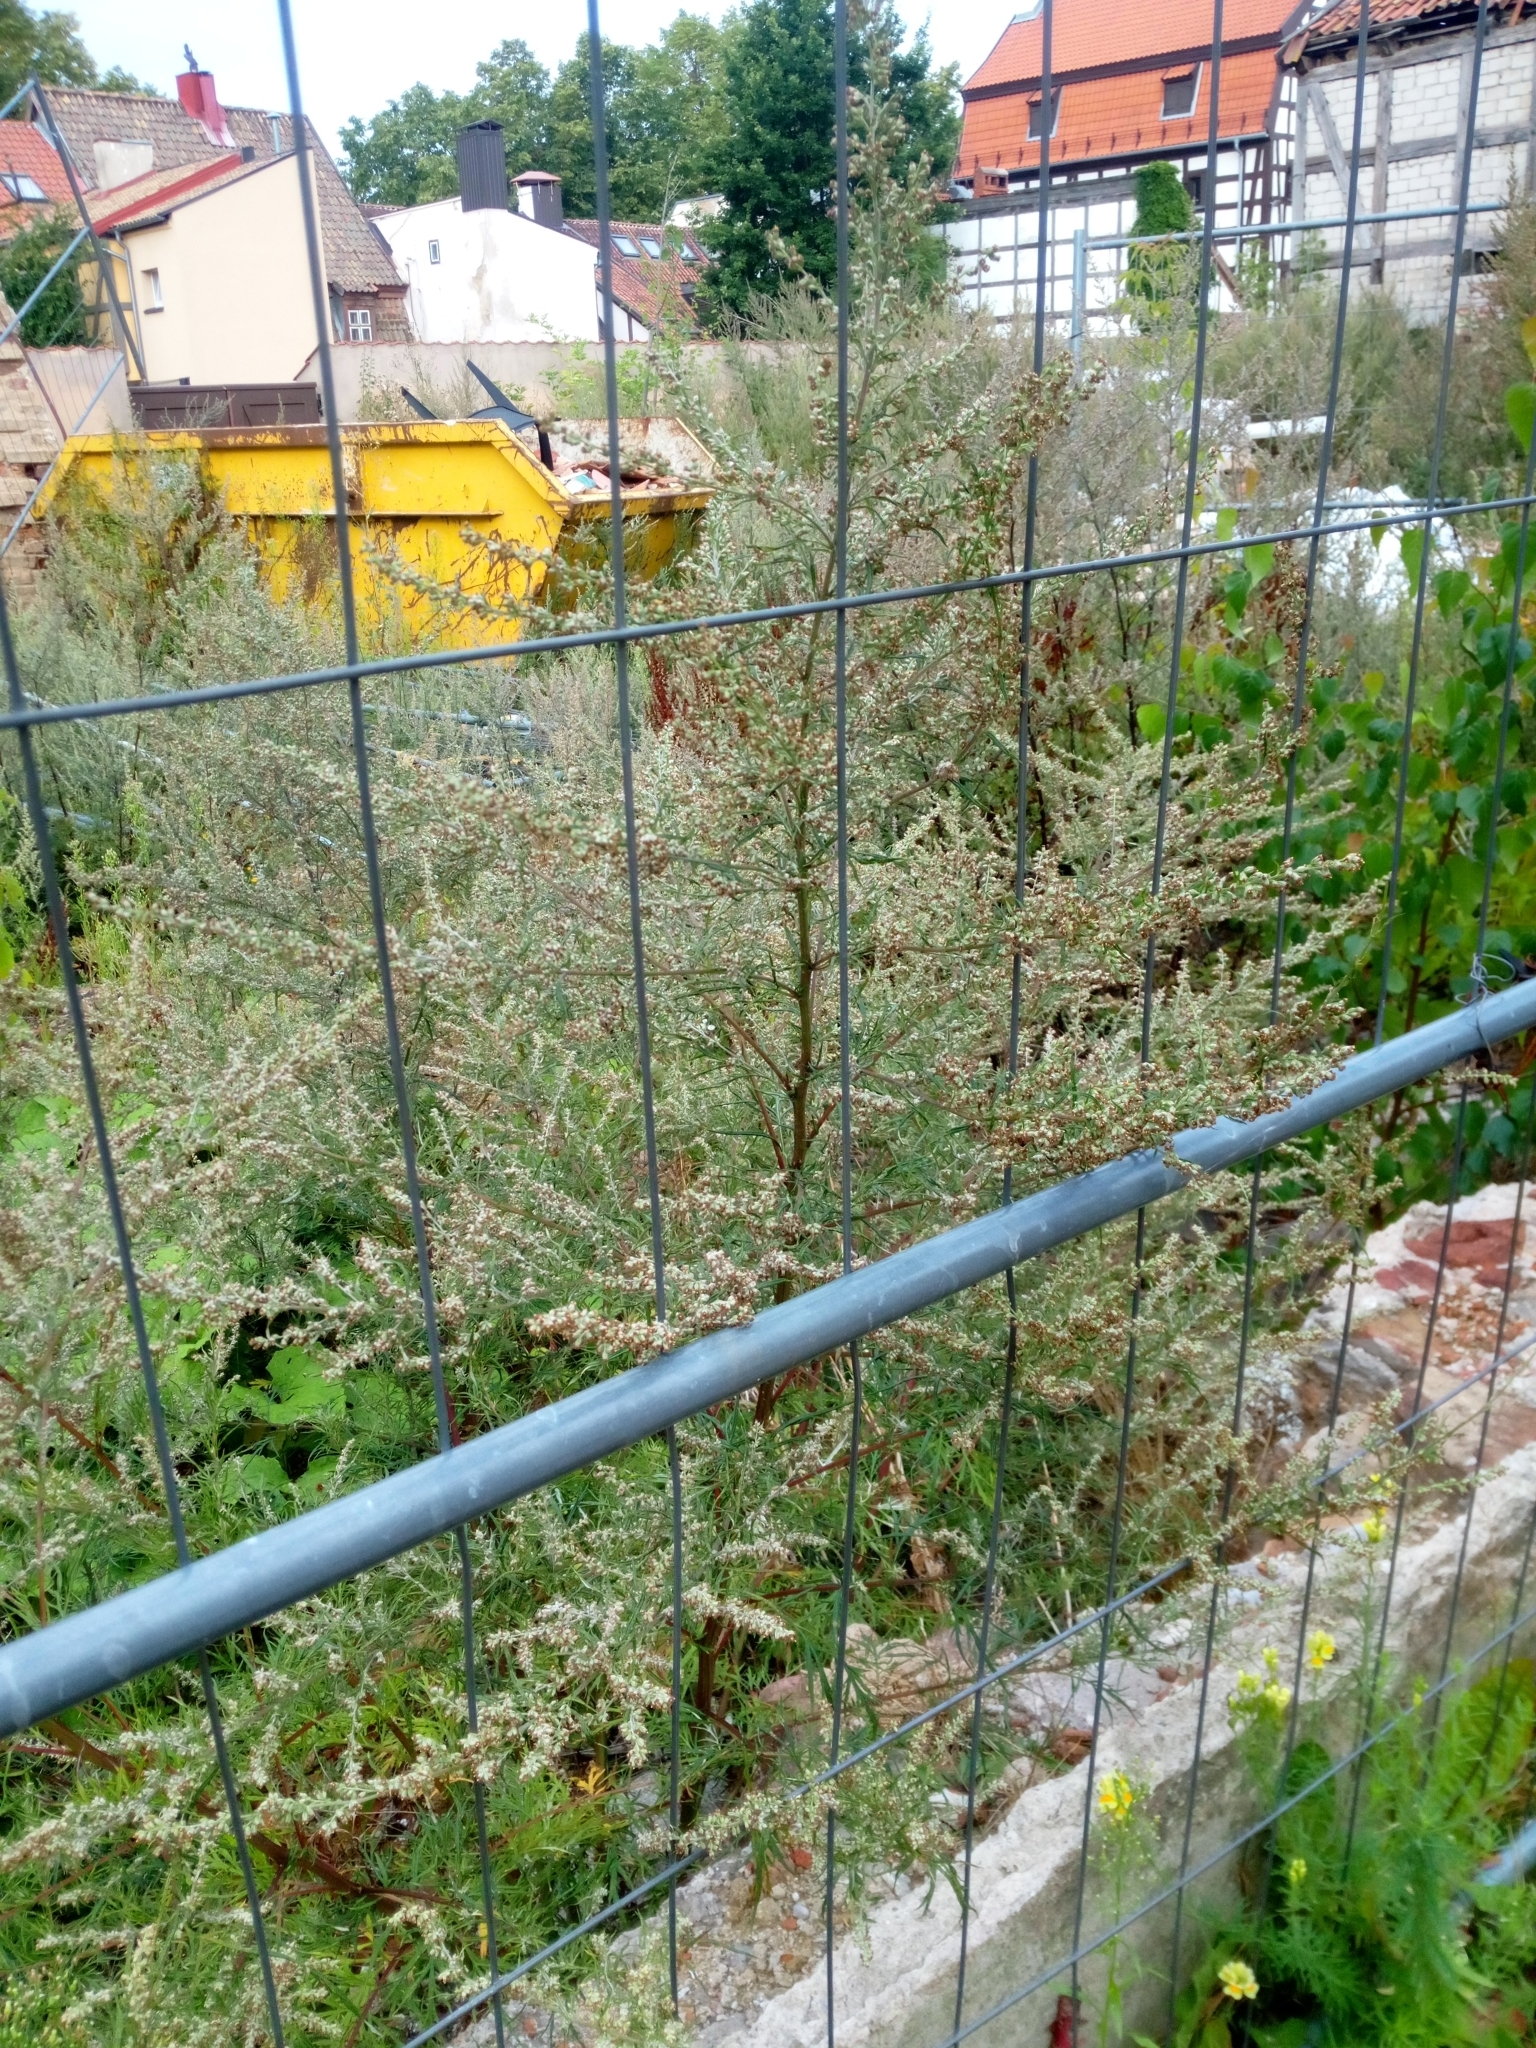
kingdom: Plantae
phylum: Tracheophyta
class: Magnoliopsida
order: Asterales
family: Asteraceae
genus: Artemisia
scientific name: Artemisia vulgaris
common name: Mugwort
